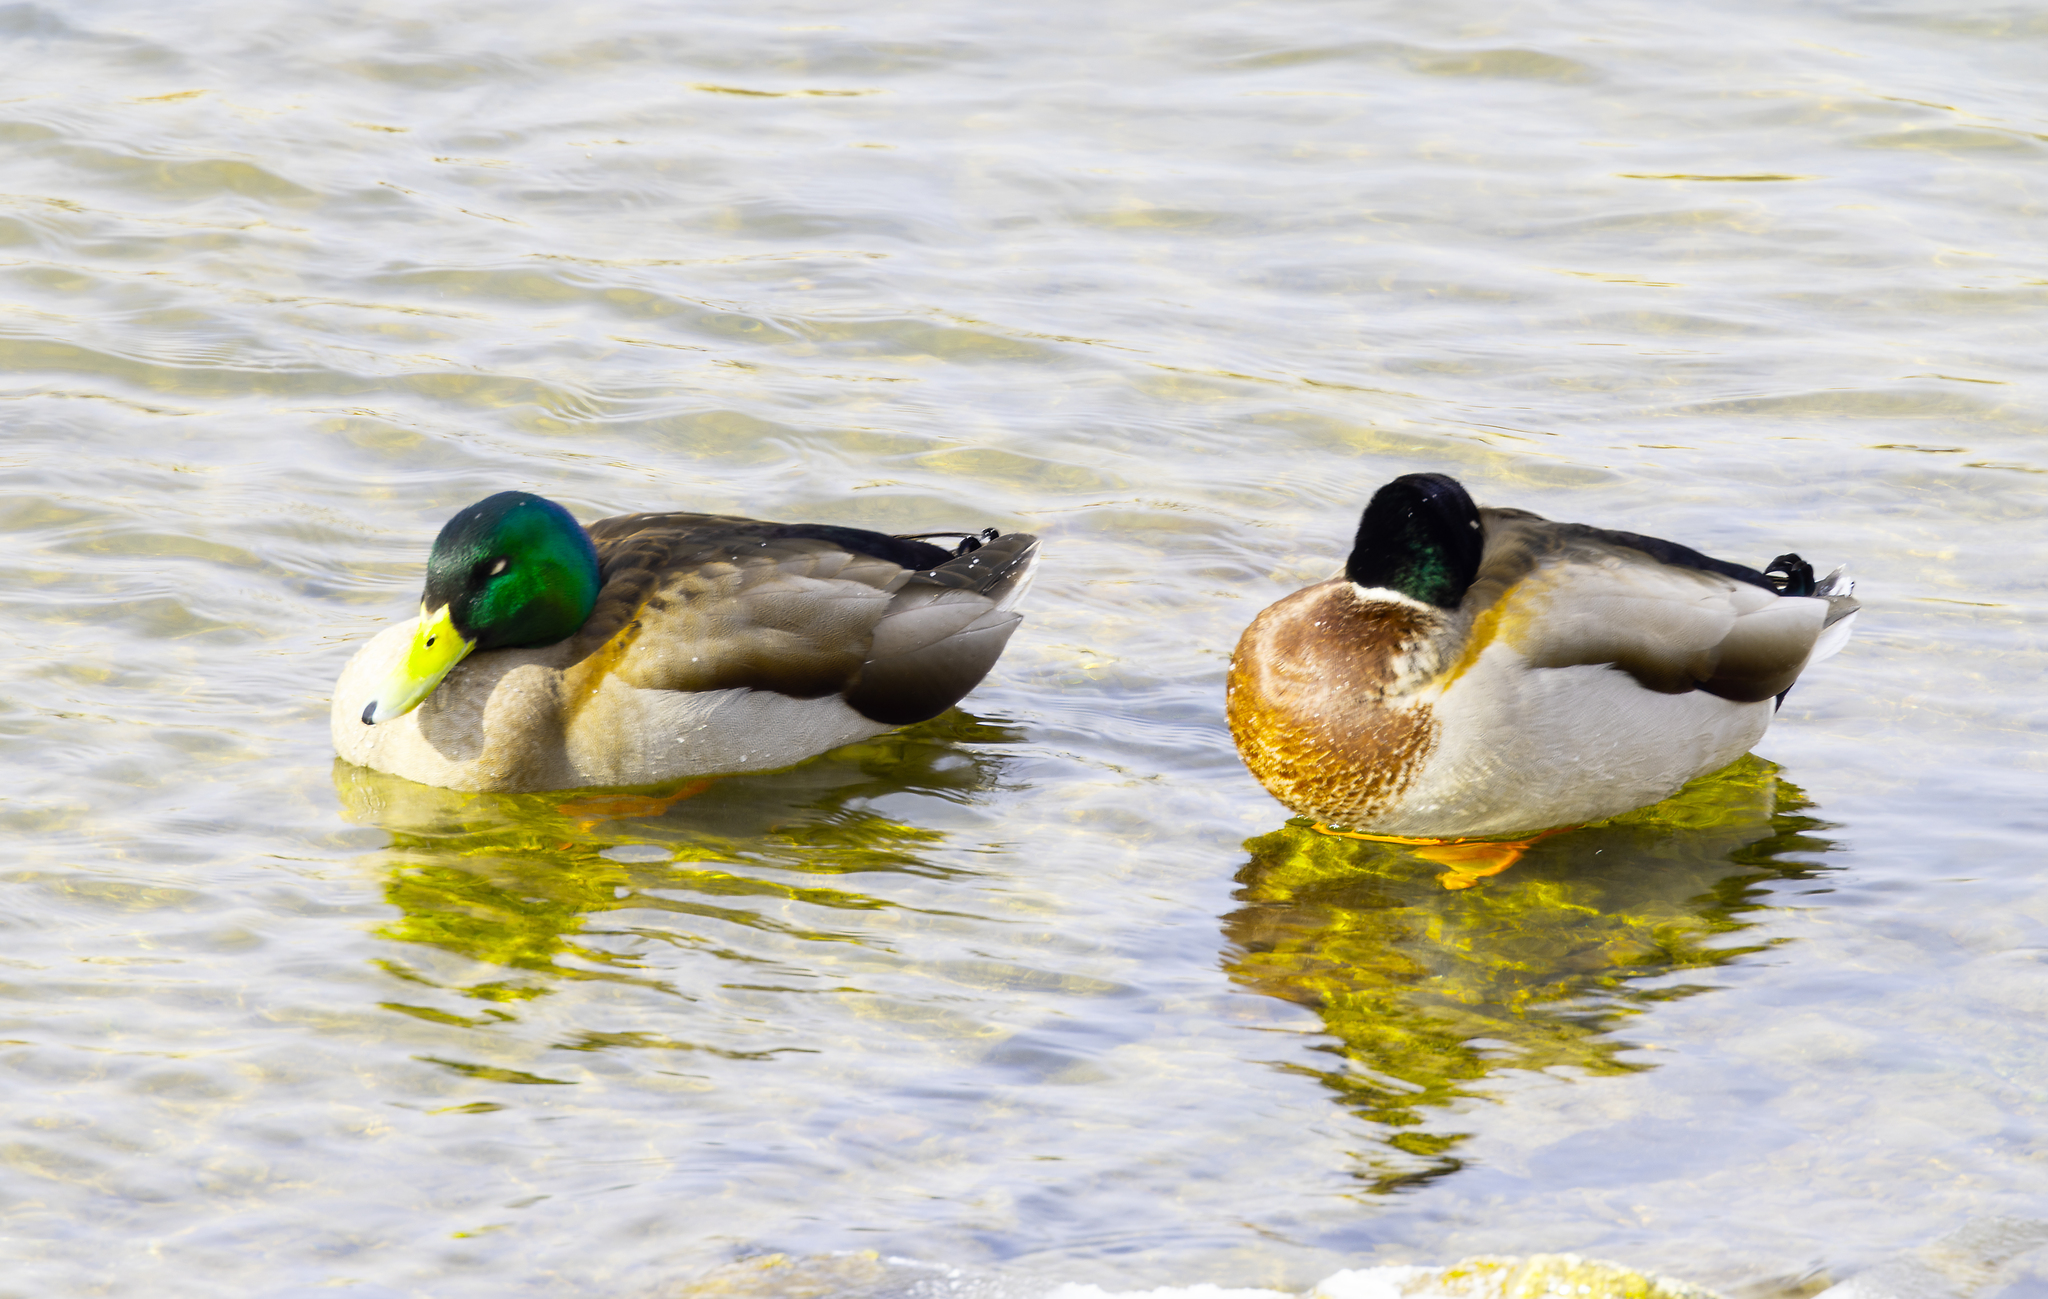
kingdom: Animalia
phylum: Chordata
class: Aves
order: Anseriformes
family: Anatidae
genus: Anas
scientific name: Anas platyrhynchos
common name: Mallard
